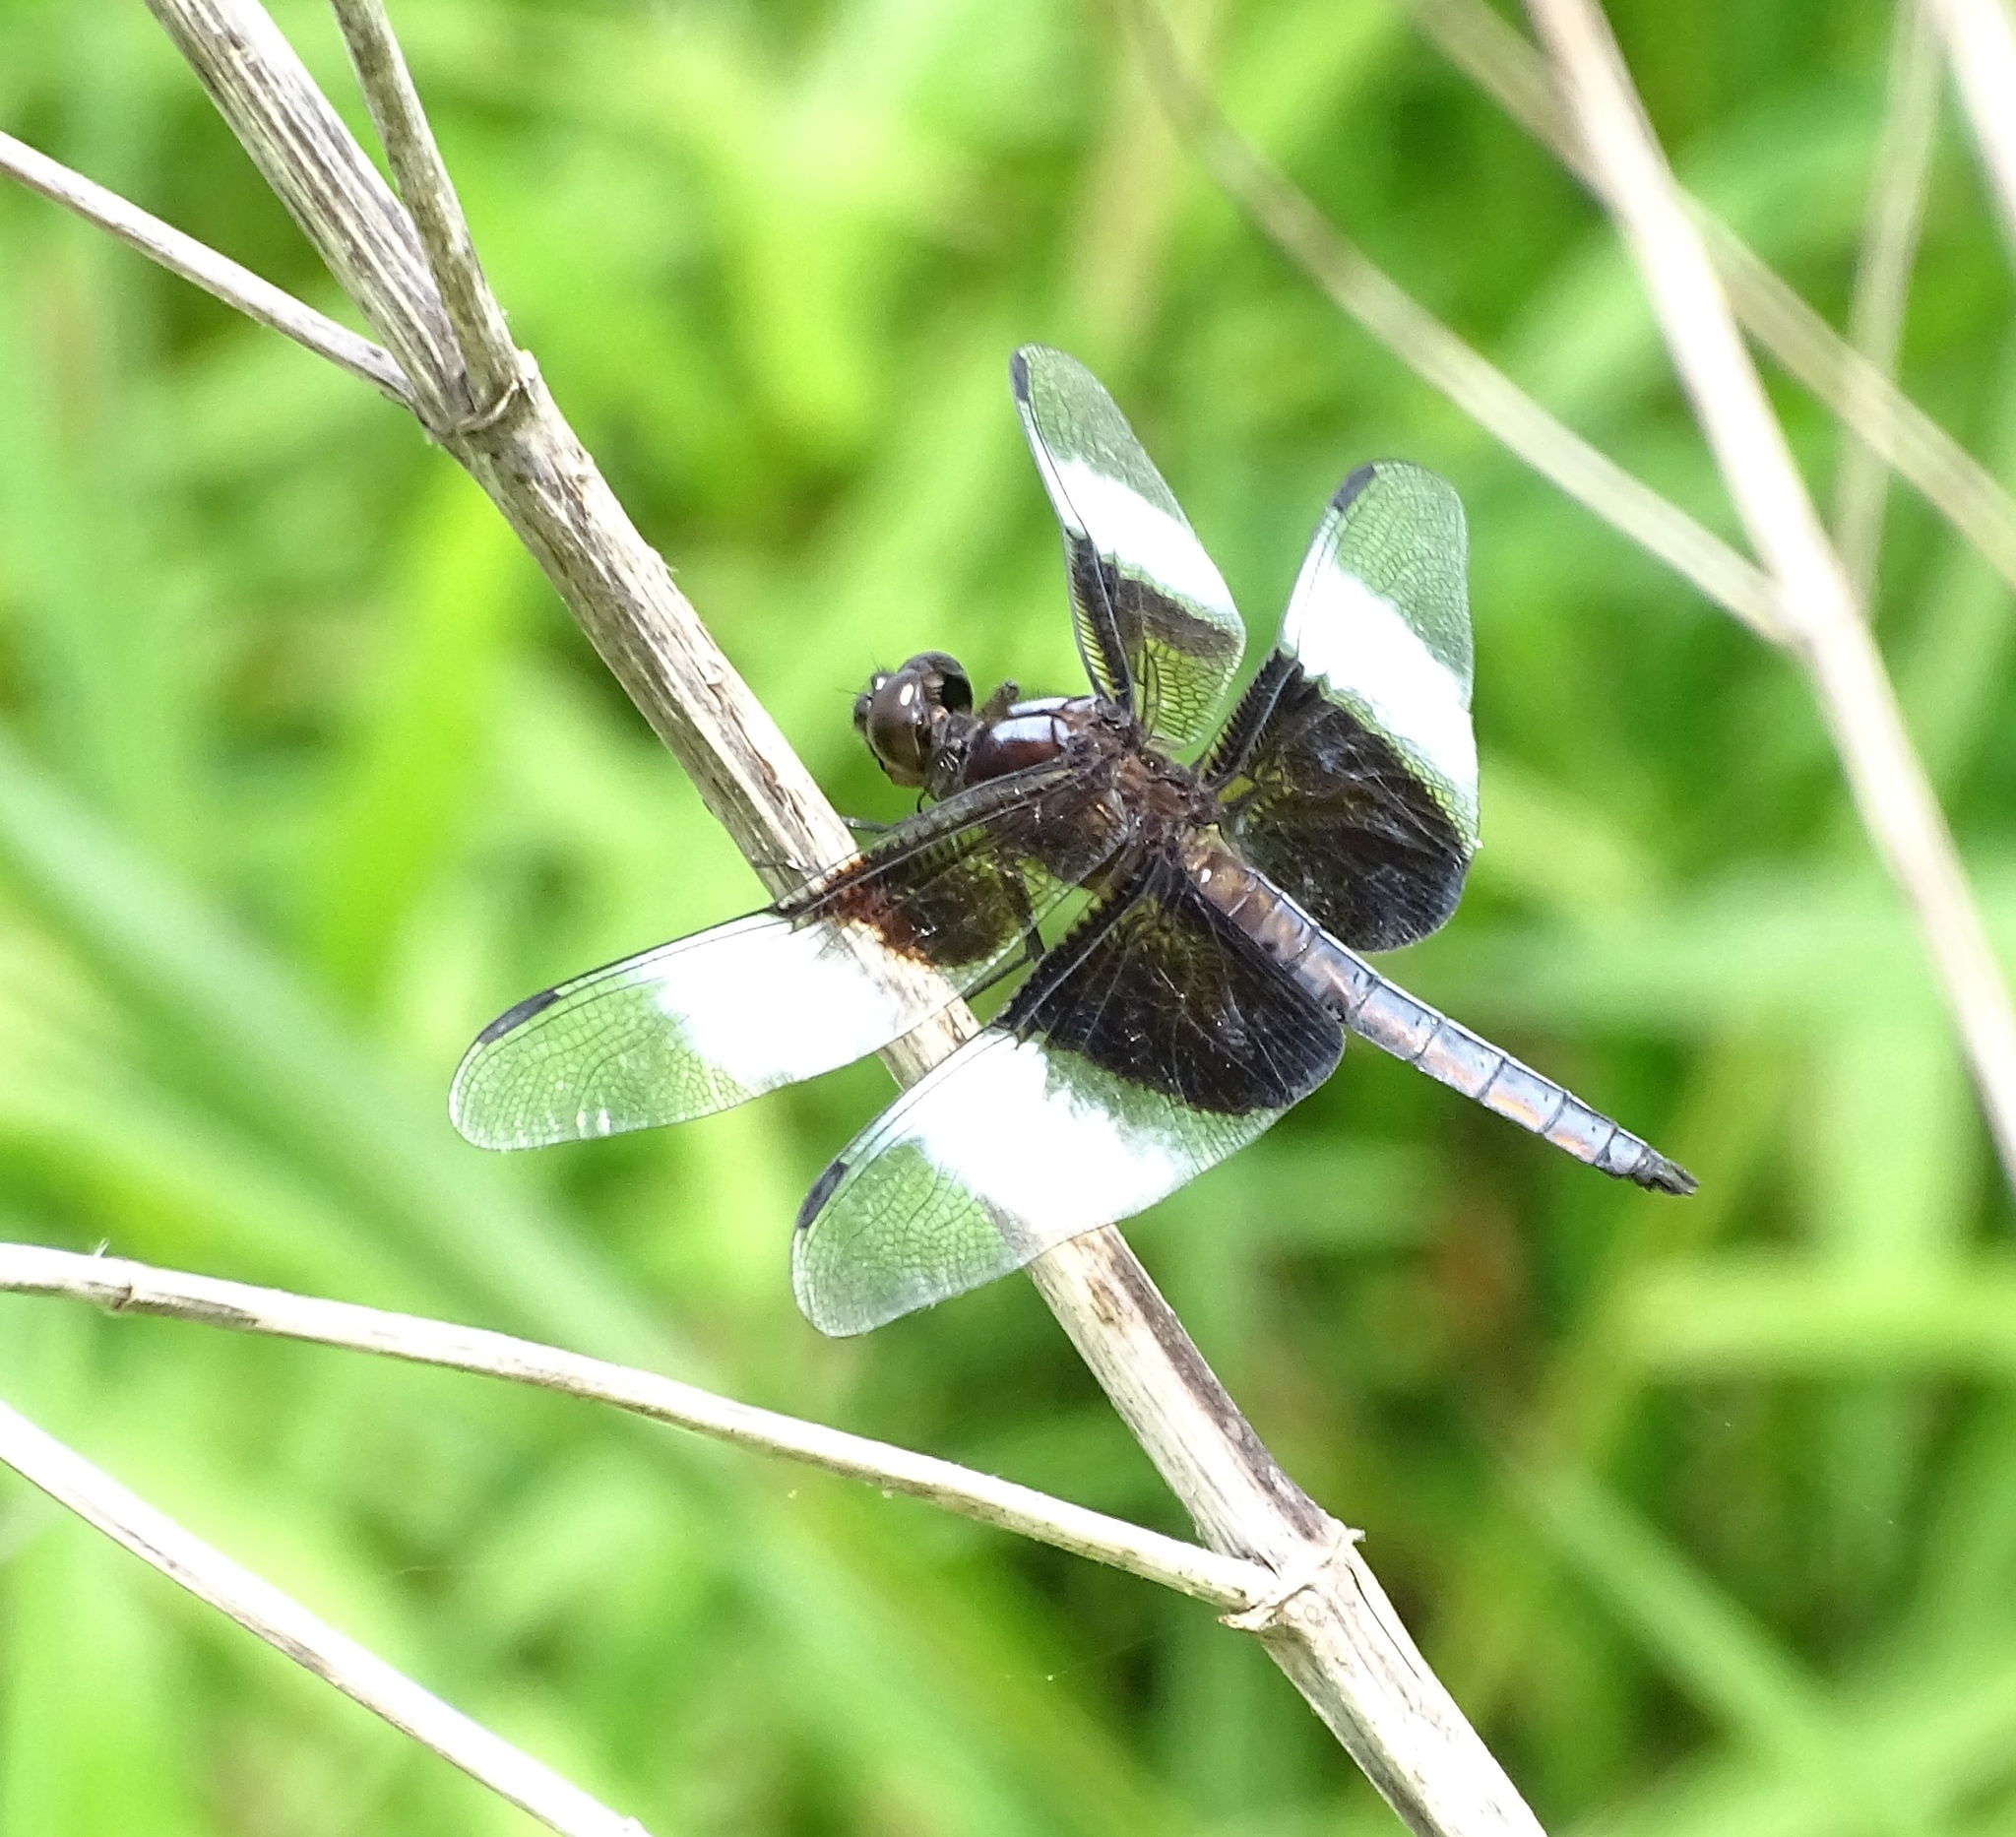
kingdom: Animalia
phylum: Arthropoda
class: Insecta
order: Odonata
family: Libellulidae
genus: Libellula
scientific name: Libellula luctuosa
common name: Widow skimmer
